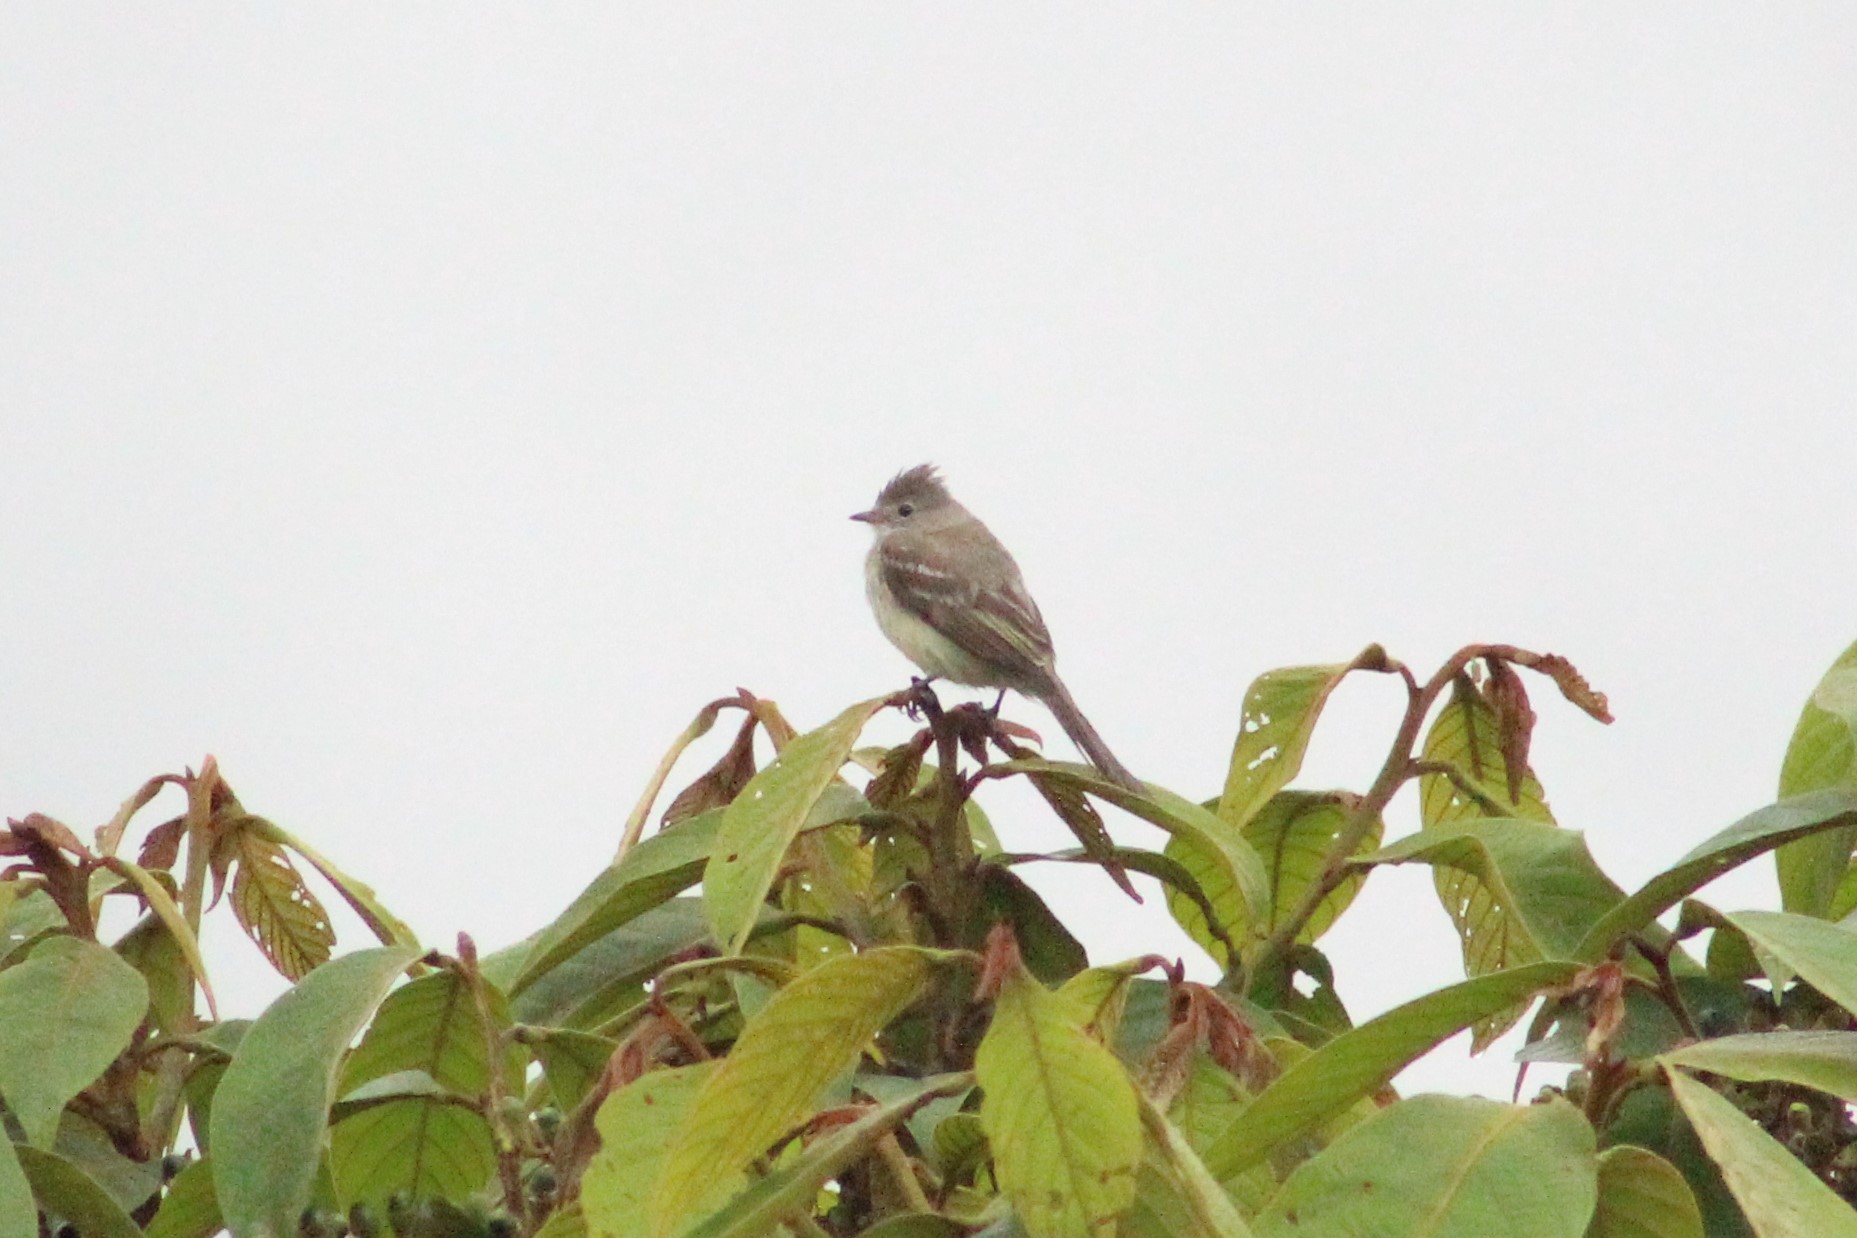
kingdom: Animalia
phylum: Chordata
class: Aves
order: Passeriformes
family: Tyrannidae
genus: Elaenia
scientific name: Elaenia flavogaster
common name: Yellow-bellied elaenia
